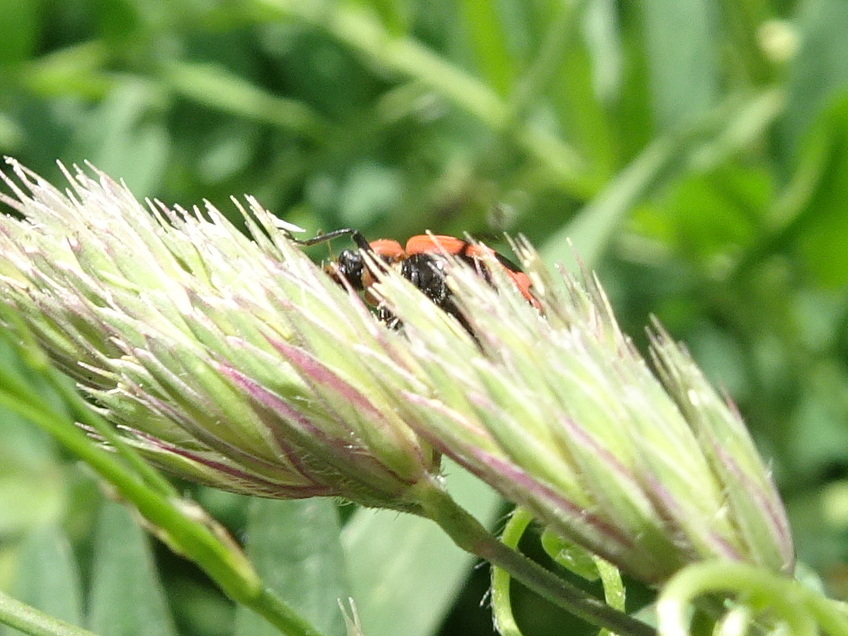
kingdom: Animalia
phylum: Arthropoda
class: Insecta
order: Coleoptera
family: Coccinellidae
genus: Coleomegilla
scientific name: Coleomegilla maculata
